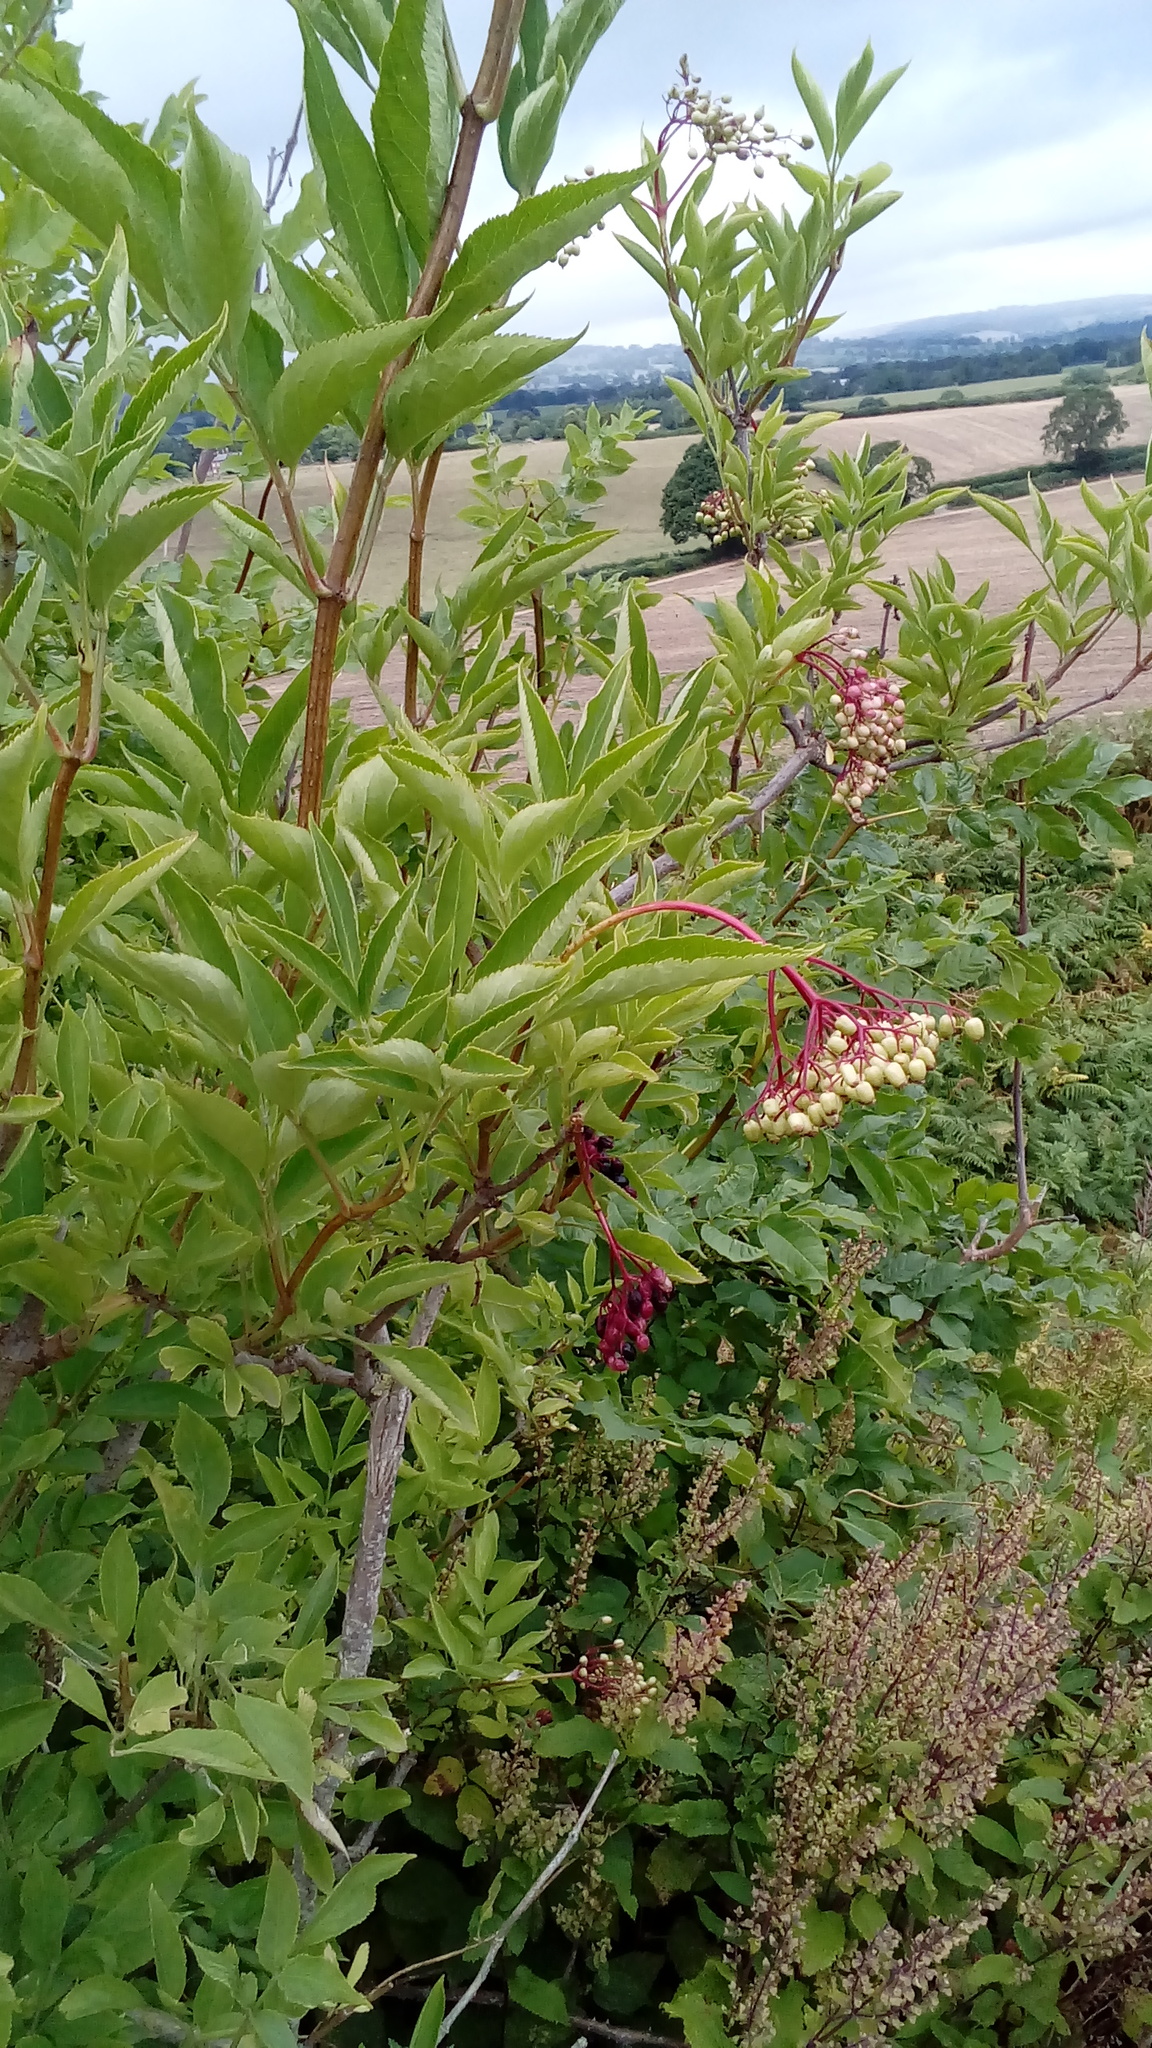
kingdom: Plantae
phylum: Tracheophyta
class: Magnoliopsida
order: Dipsacales
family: Viburnaceae
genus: Sambucus
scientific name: Sambucus nigra
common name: Elder
